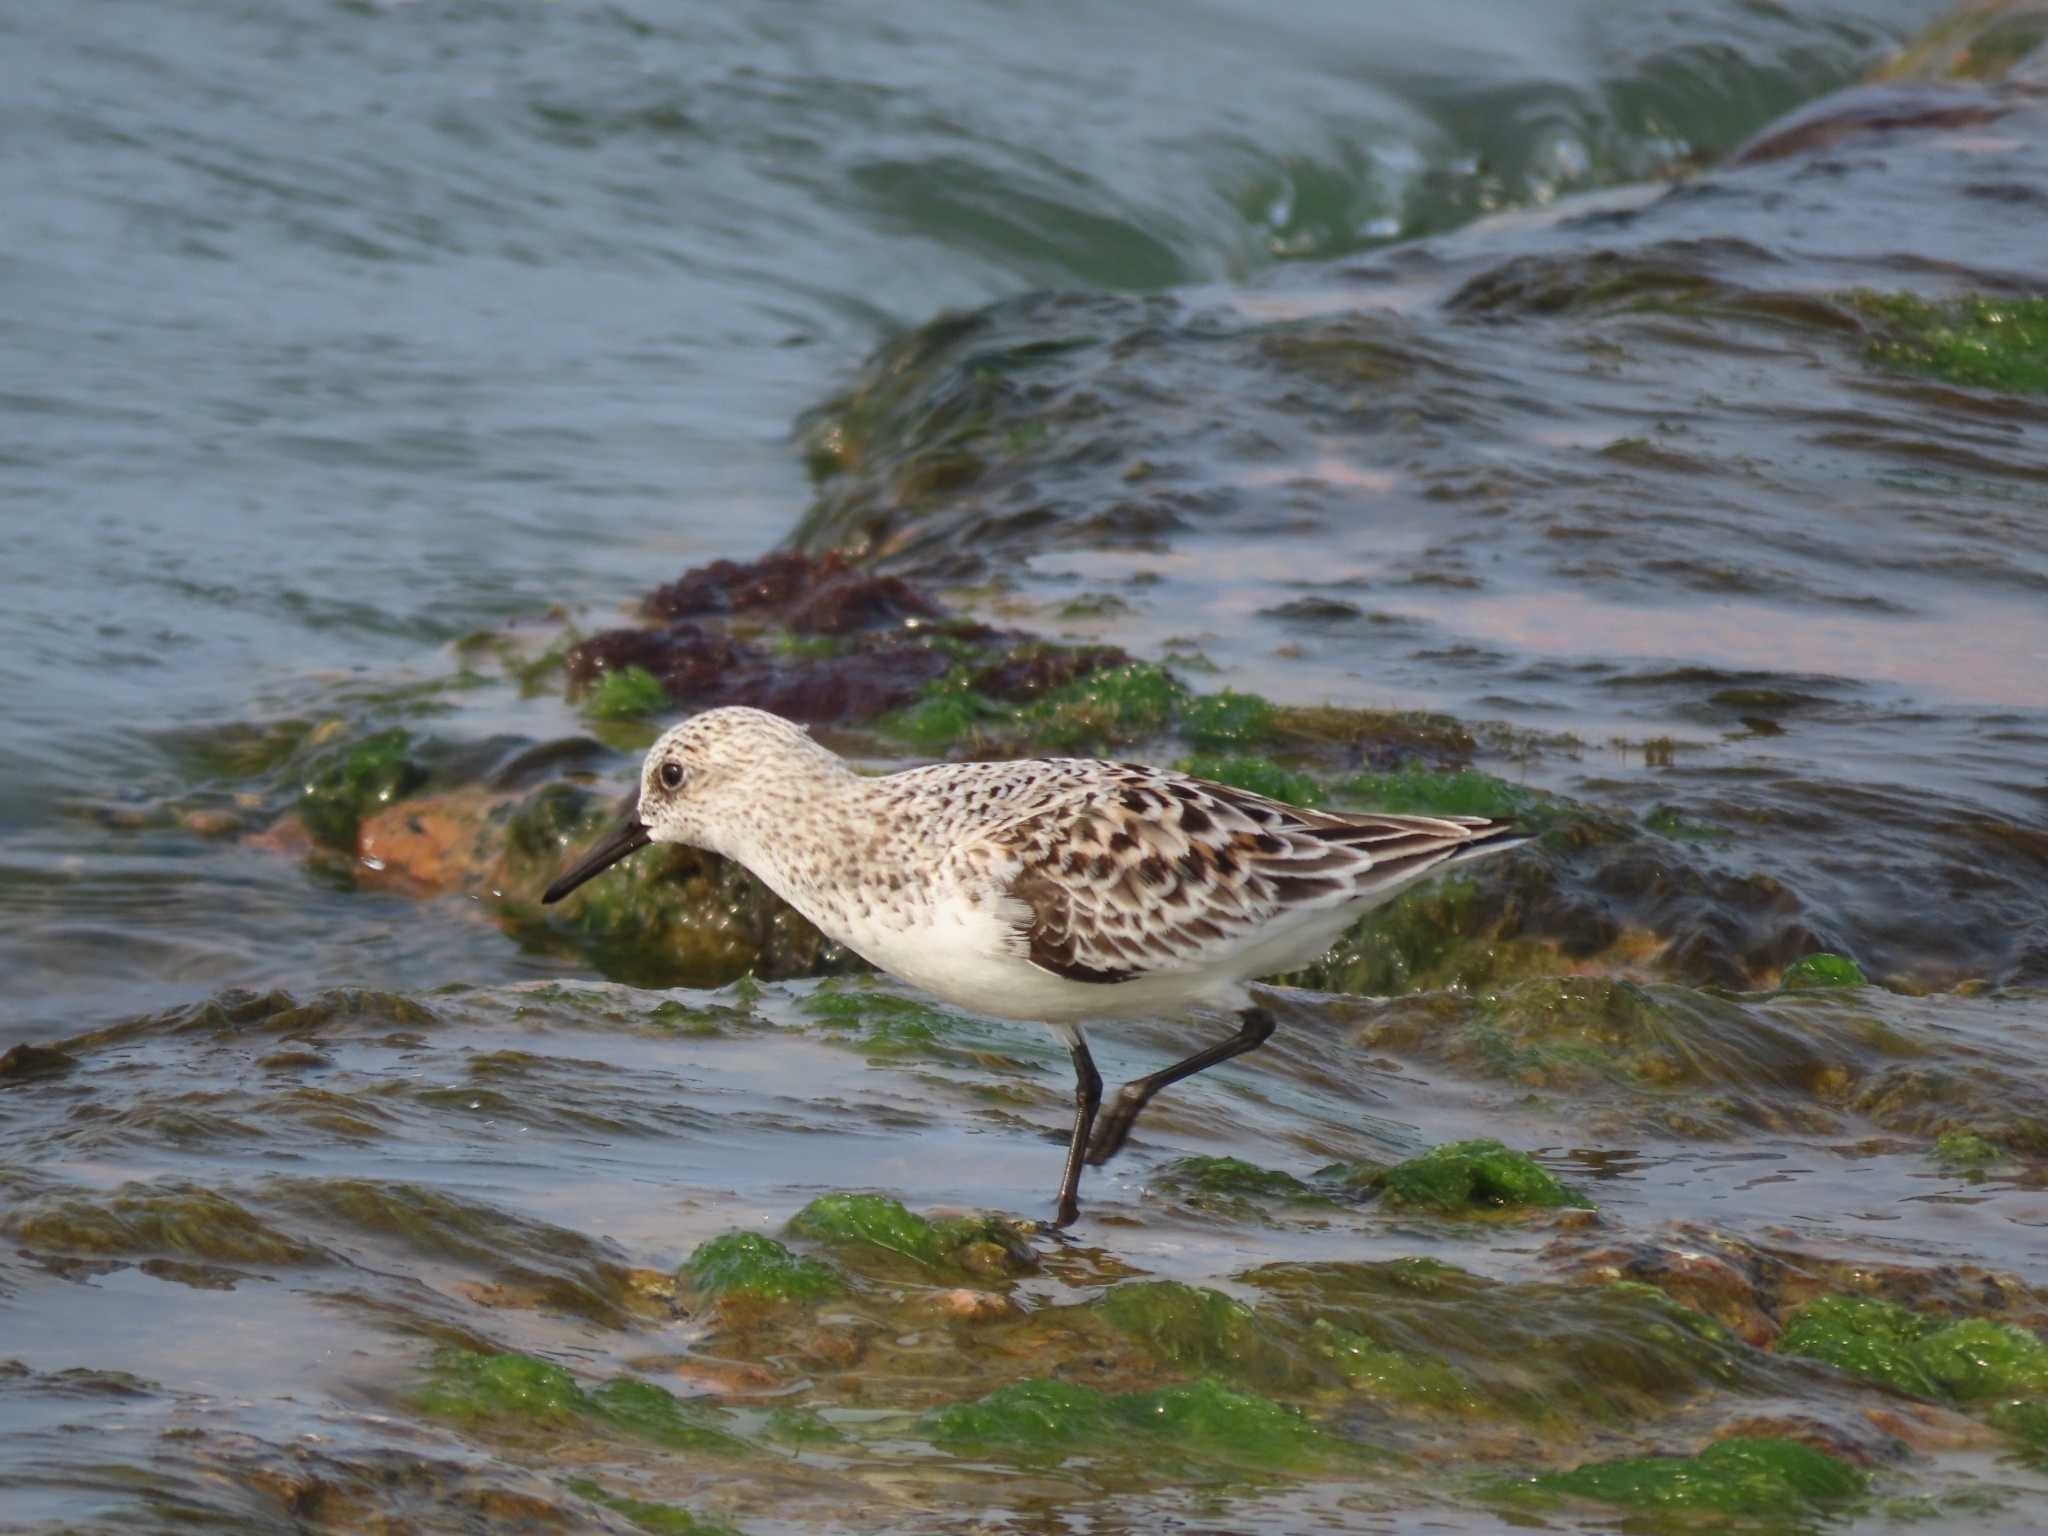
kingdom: Animalia
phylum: Chordata
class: Aves
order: Charadriiformes
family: Scolopacidae
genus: Calidris
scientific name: Calidris alba
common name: Sanderling
